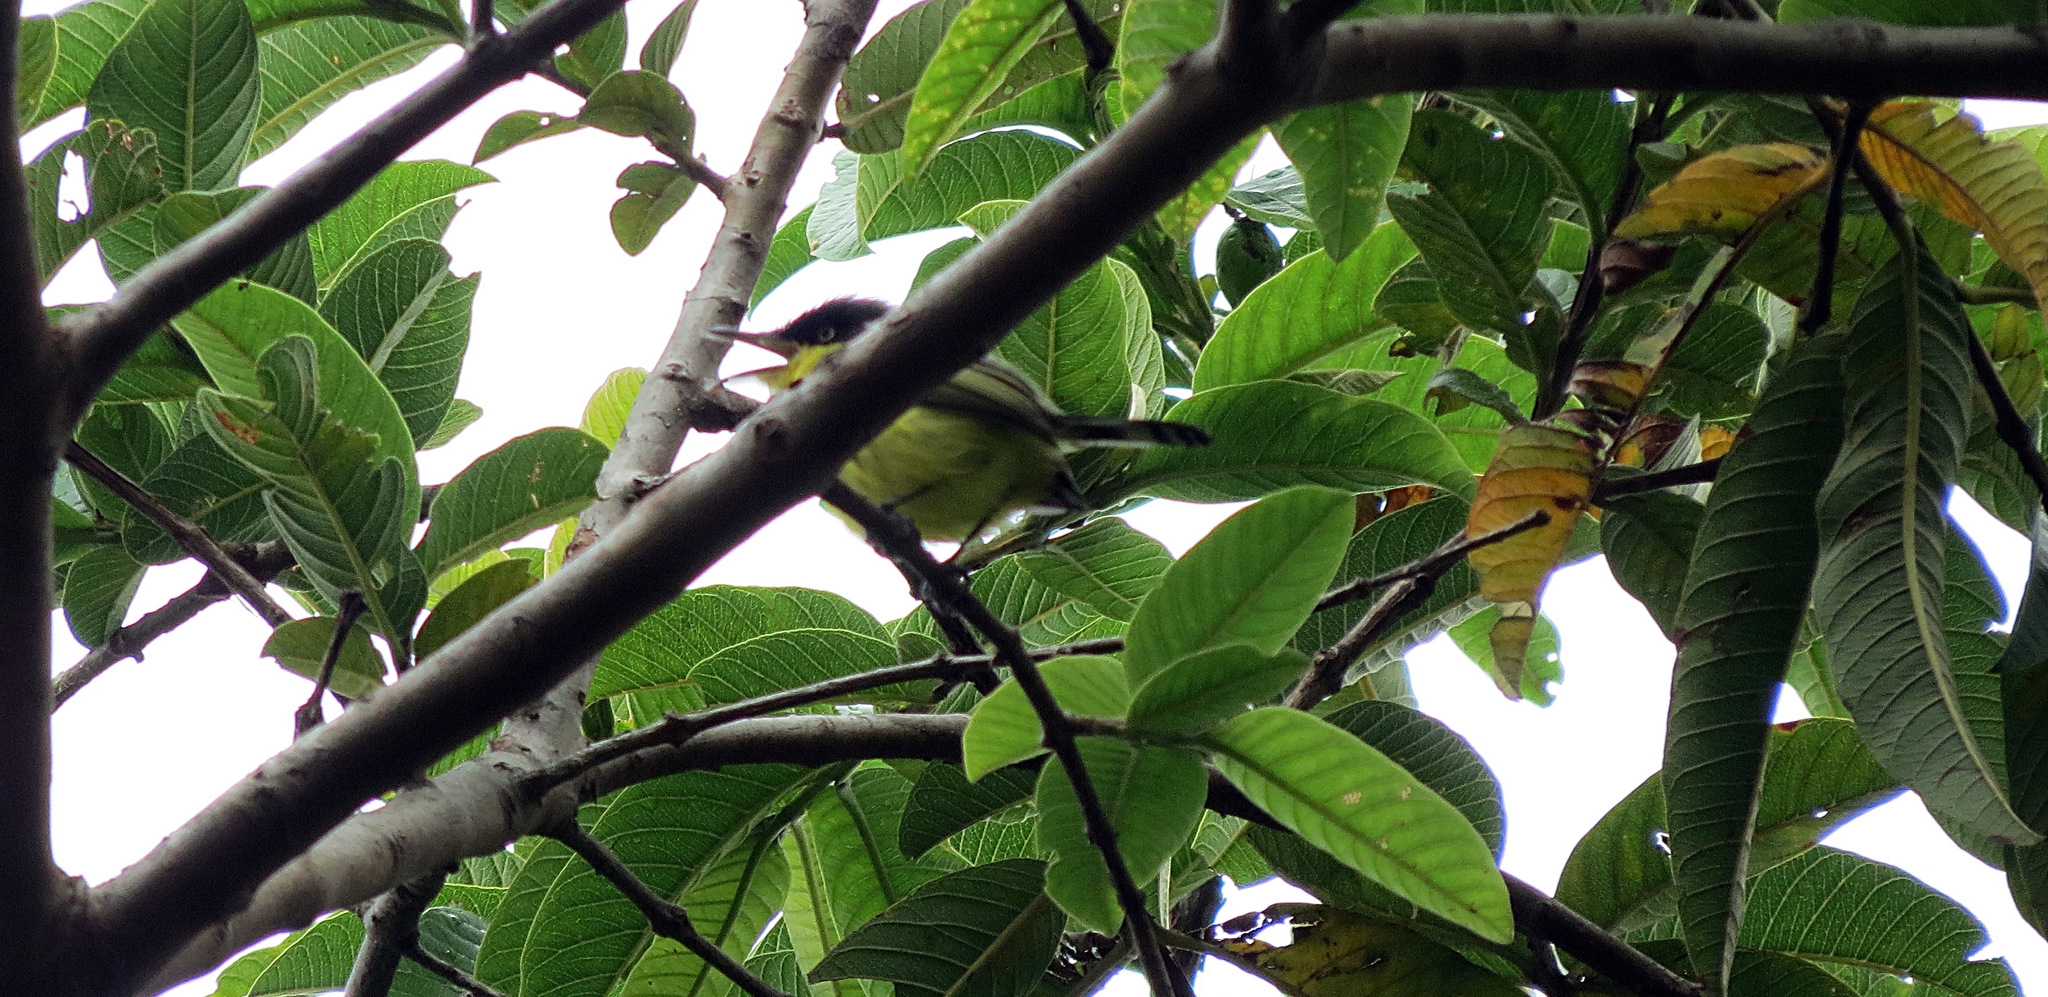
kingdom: Animalia
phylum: Chordata
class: Aves
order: Passeriformes
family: Tyrannidae
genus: Todirostrum
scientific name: Todirostrum cinereum
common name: Common tody-flycatcher
